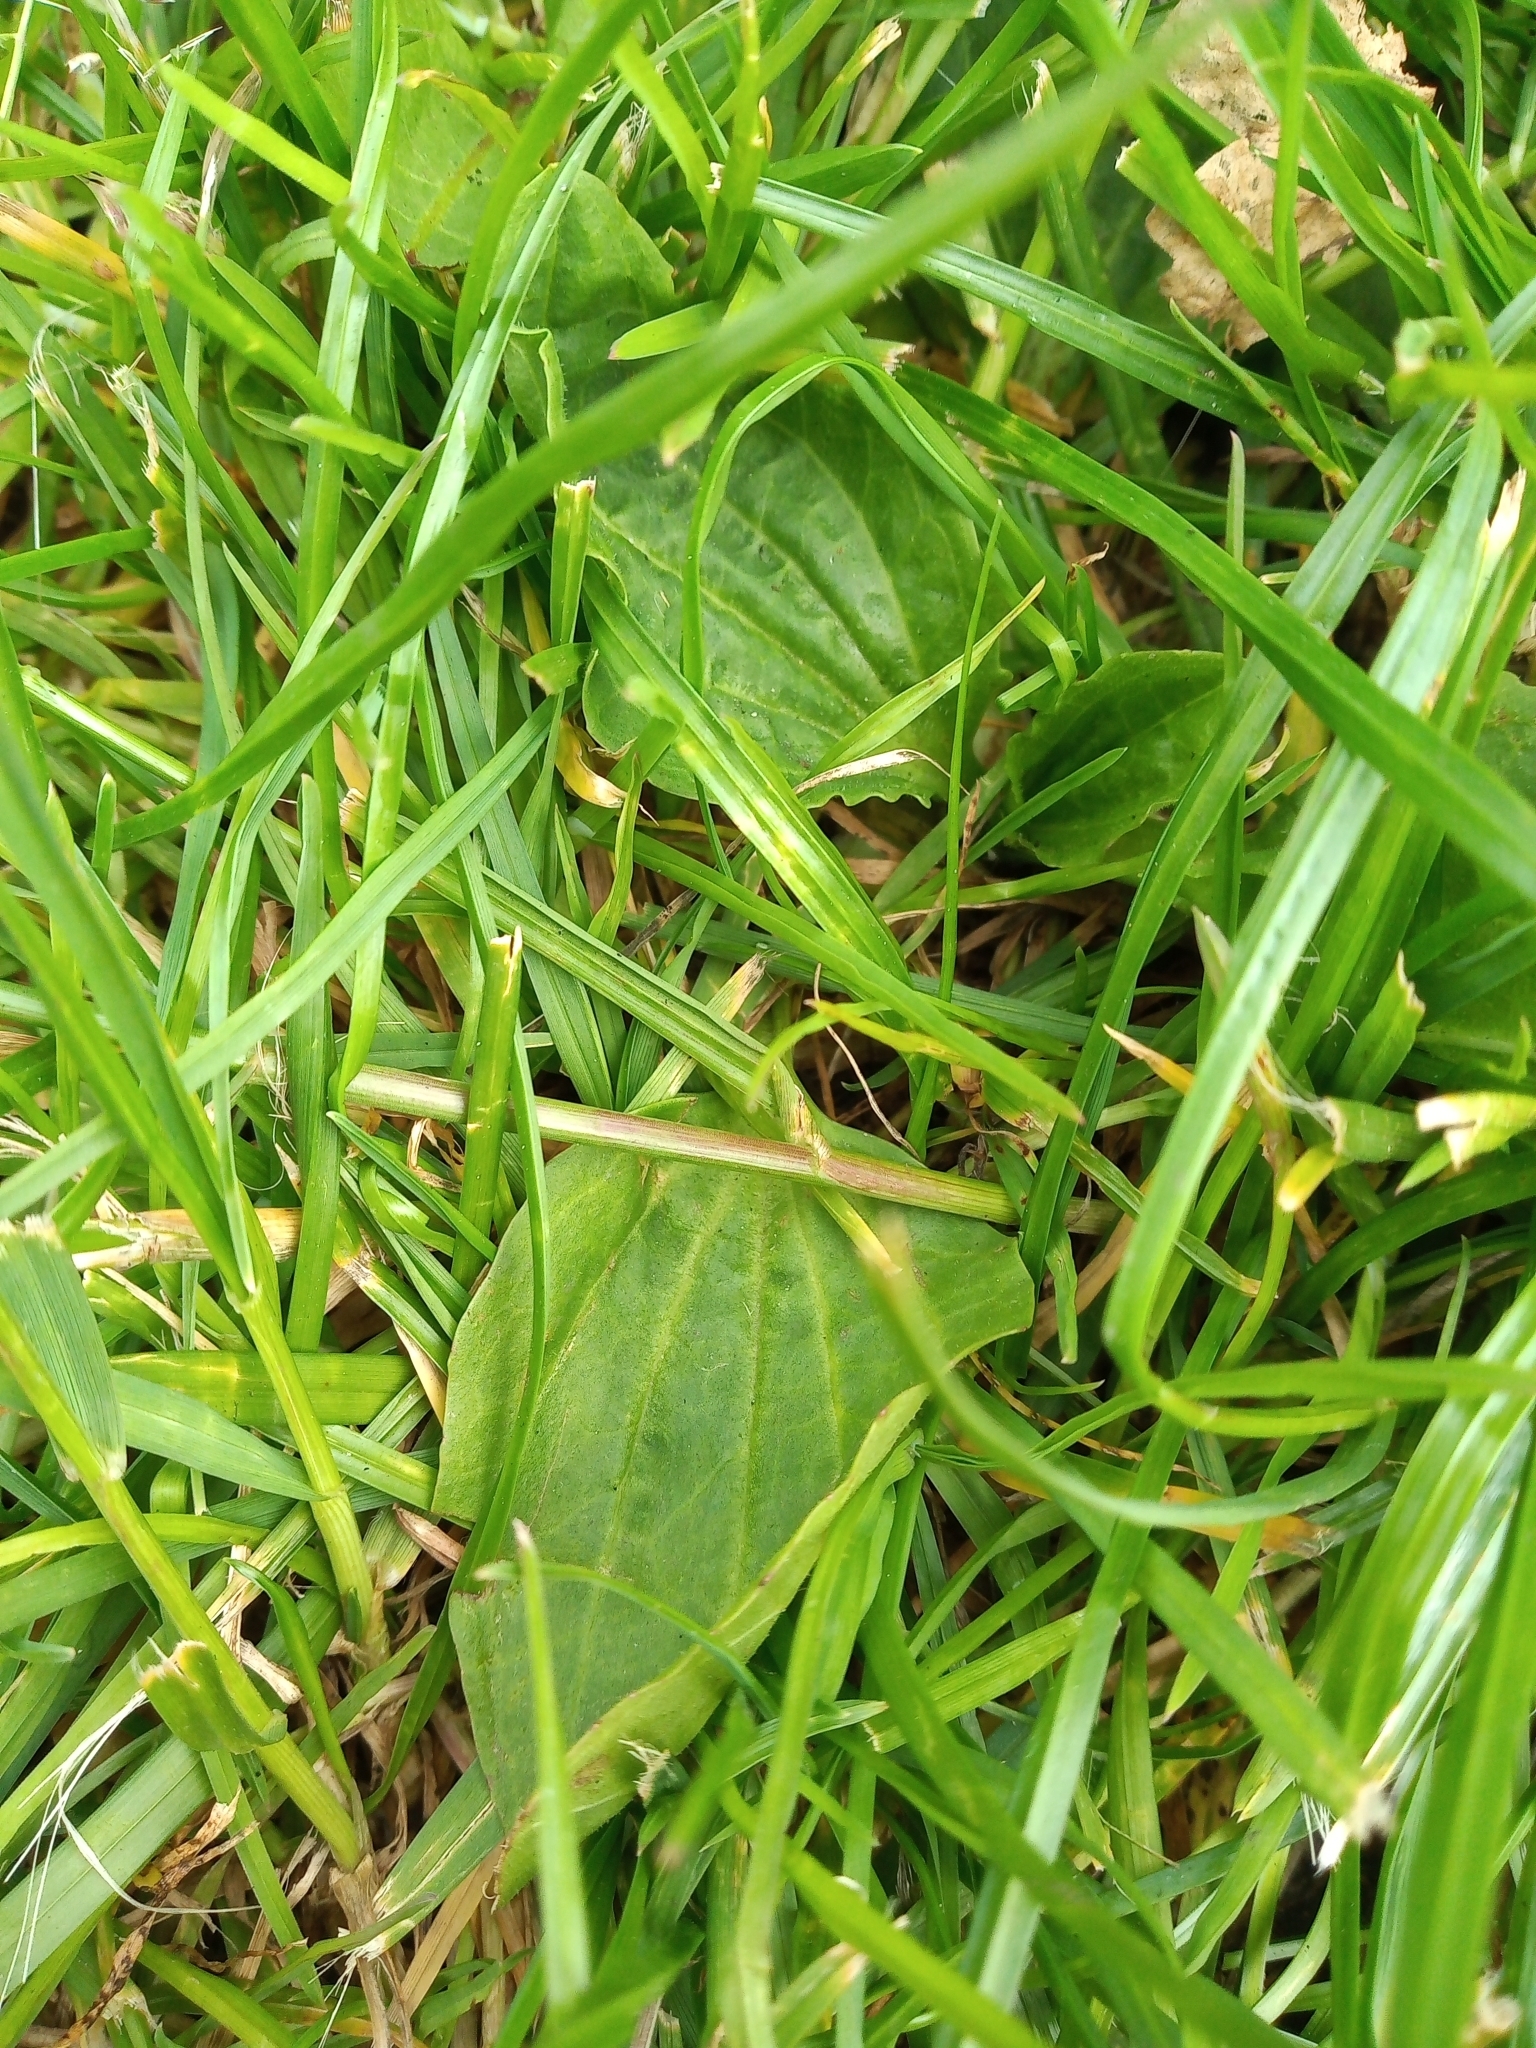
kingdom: Plantae
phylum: Tracheophyta
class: Magnoliopsida
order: Lamiales
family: Plantaginaceae
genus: Plantago
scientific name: Plantago major
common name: Common plantain
